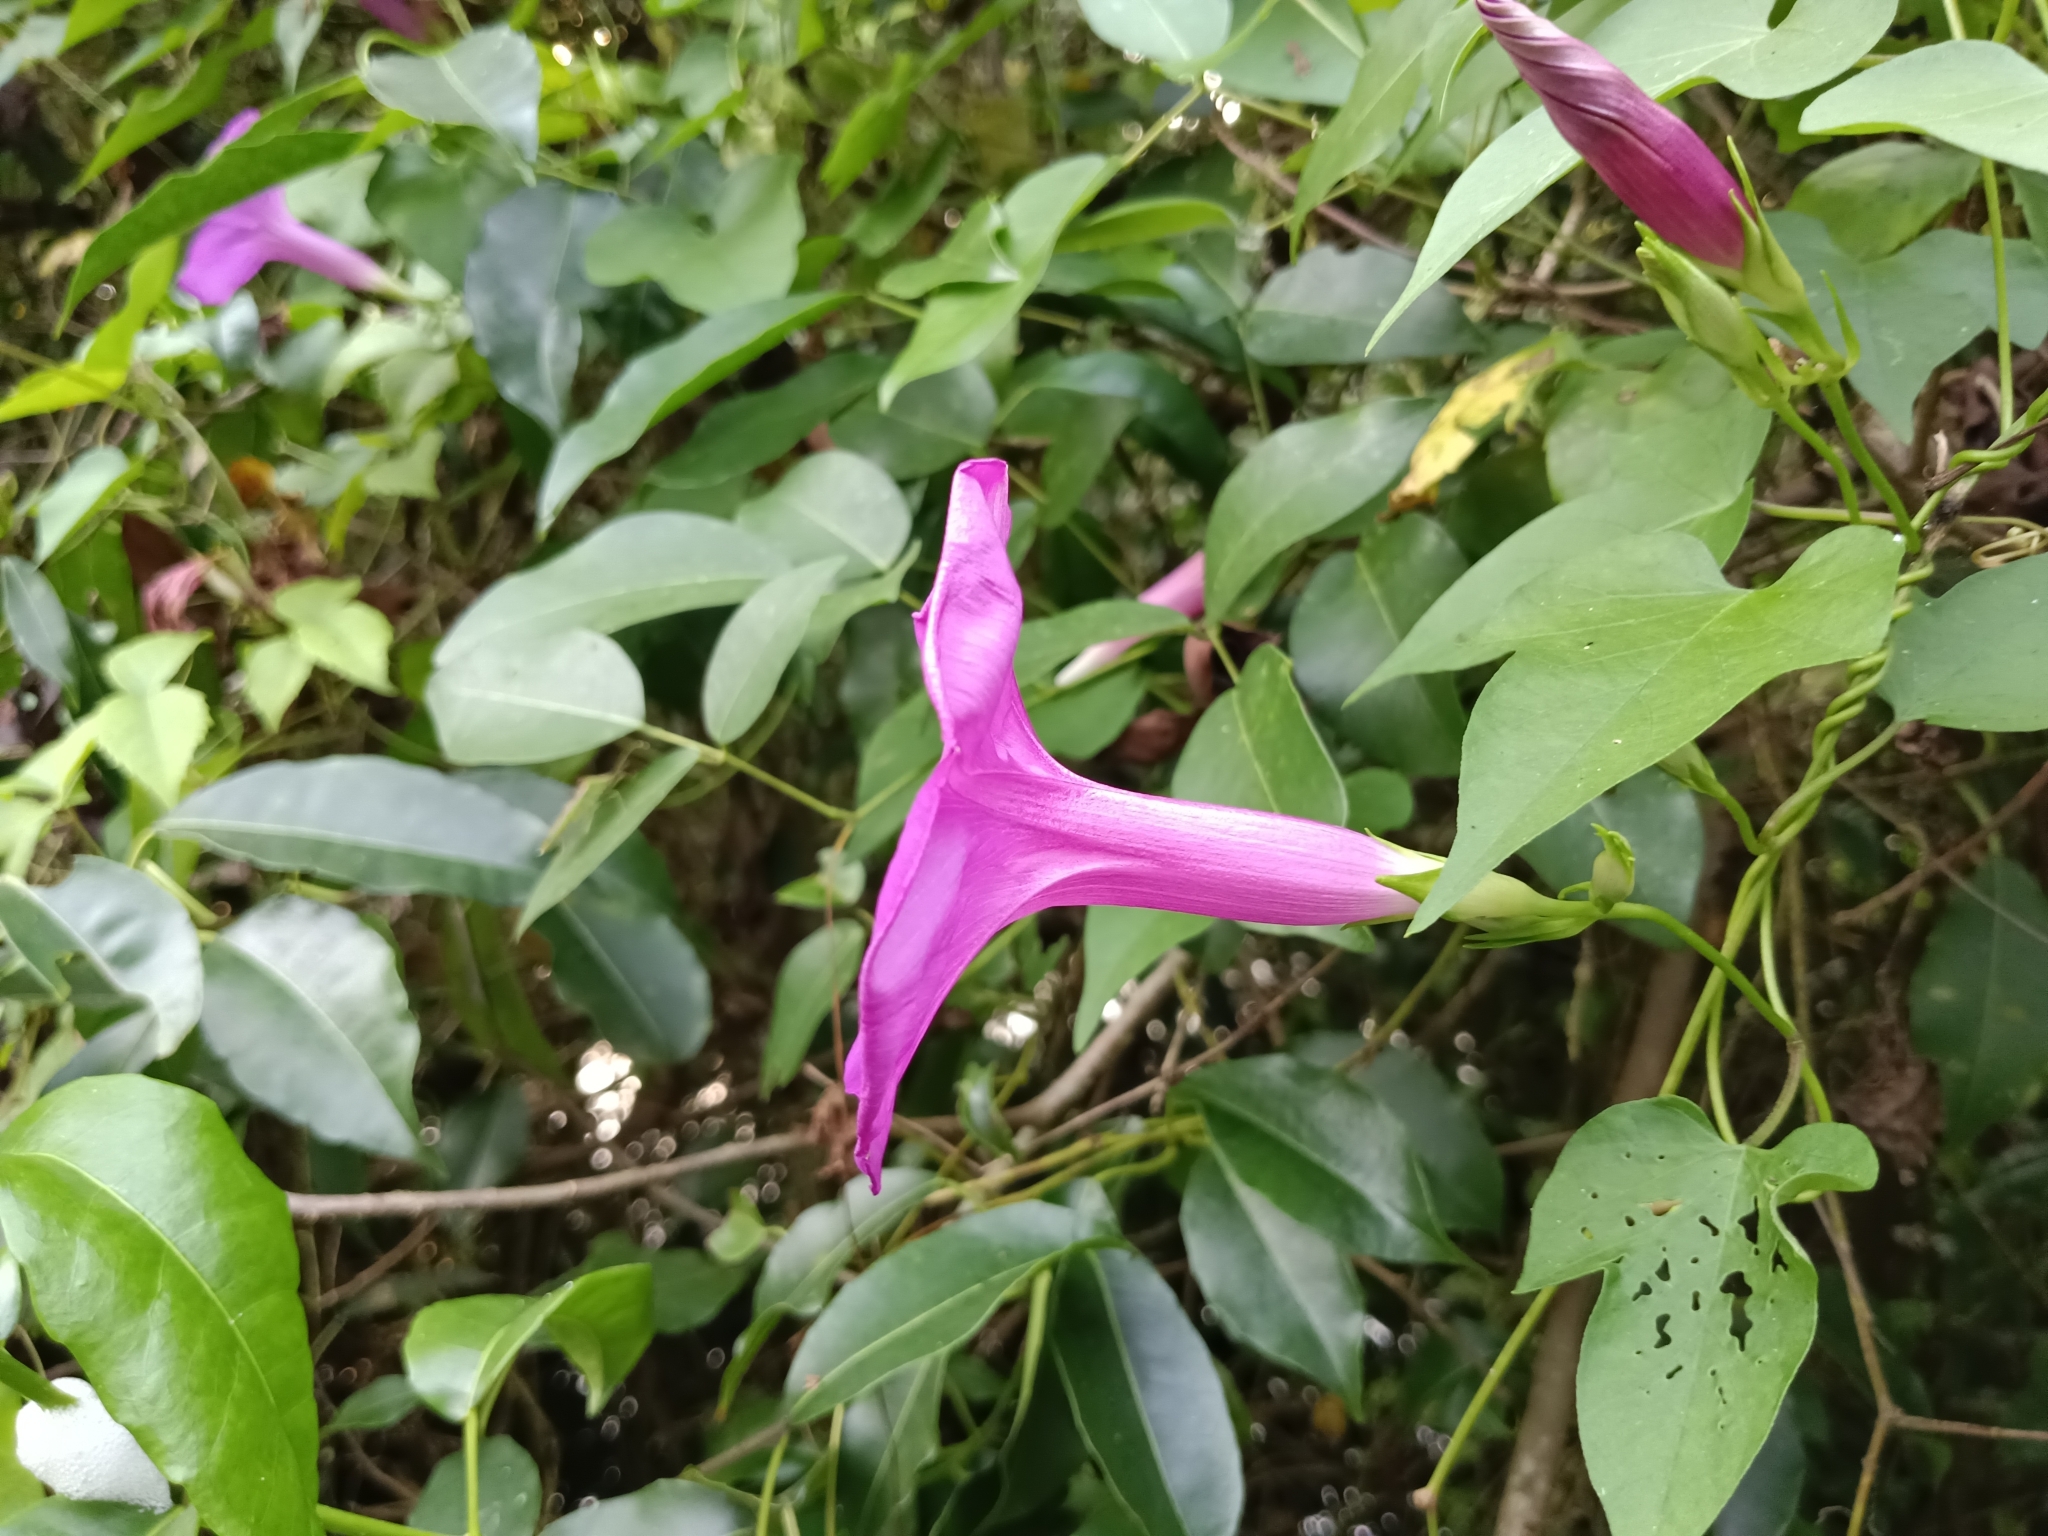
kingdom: Plantae
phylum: Tracheophyta
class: Magnoliopsida
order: Solanales
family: Convolvulaceae
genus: Ipomoea
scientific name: Ipomoea indica
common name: Blue dawnflower
